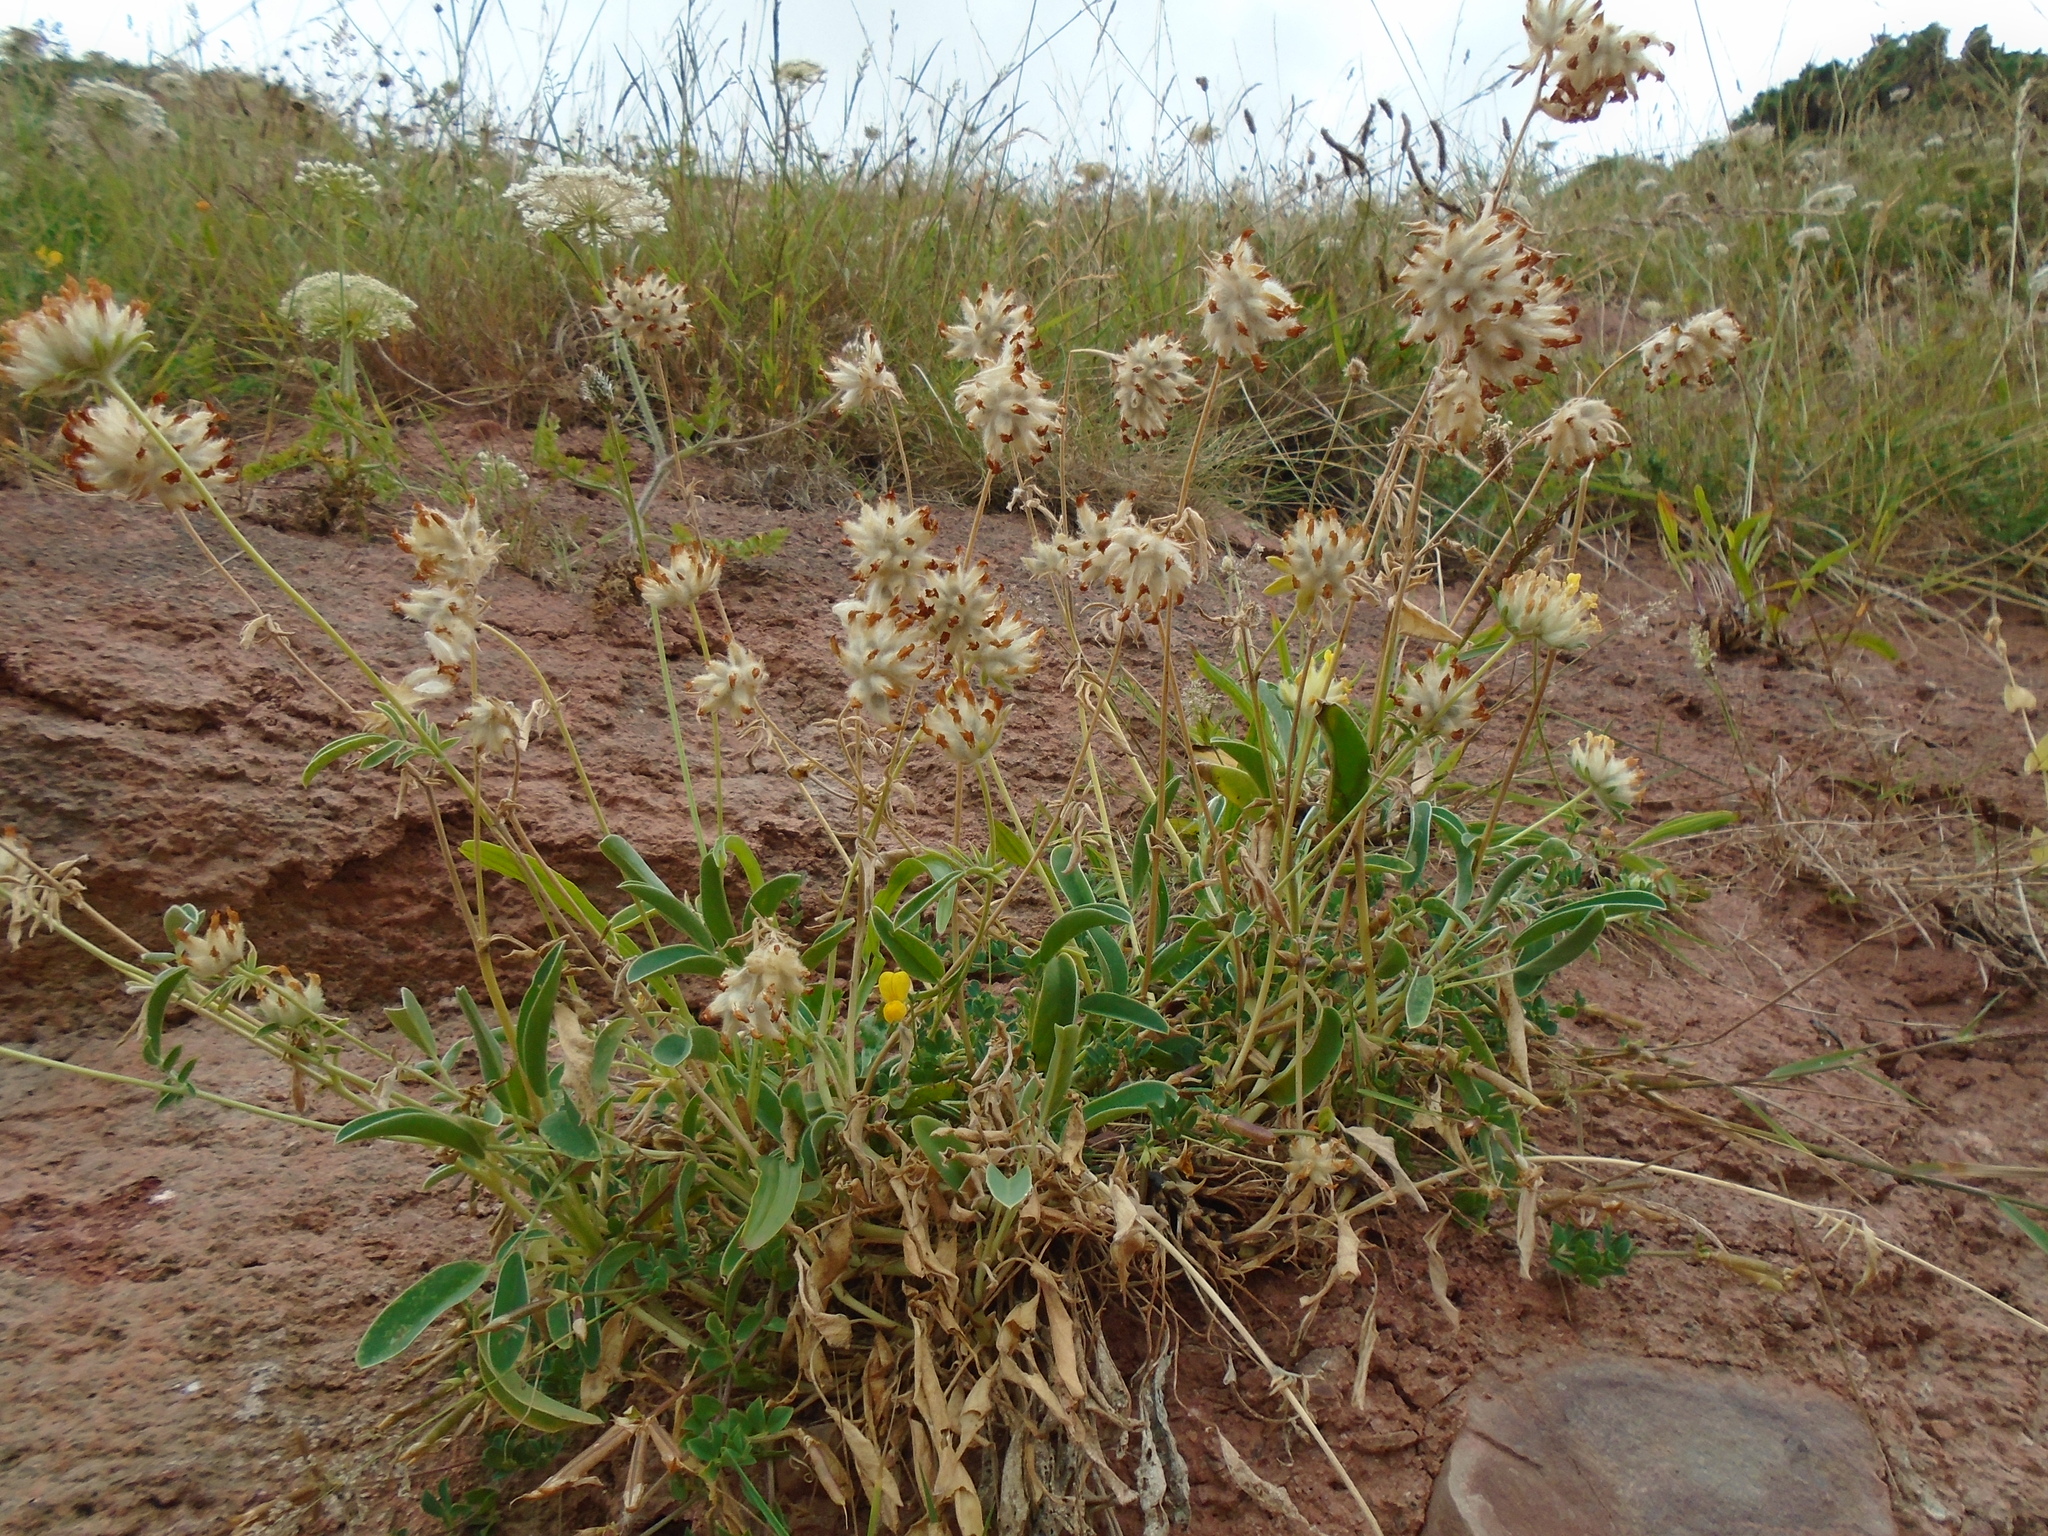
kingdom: Plantae
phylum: Tracheophyta
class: Magnoliopsida
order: Fabales
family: Fabaceae
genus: Anthyllis
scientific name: Anthyllis vulneraria
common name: Kidney vetch
